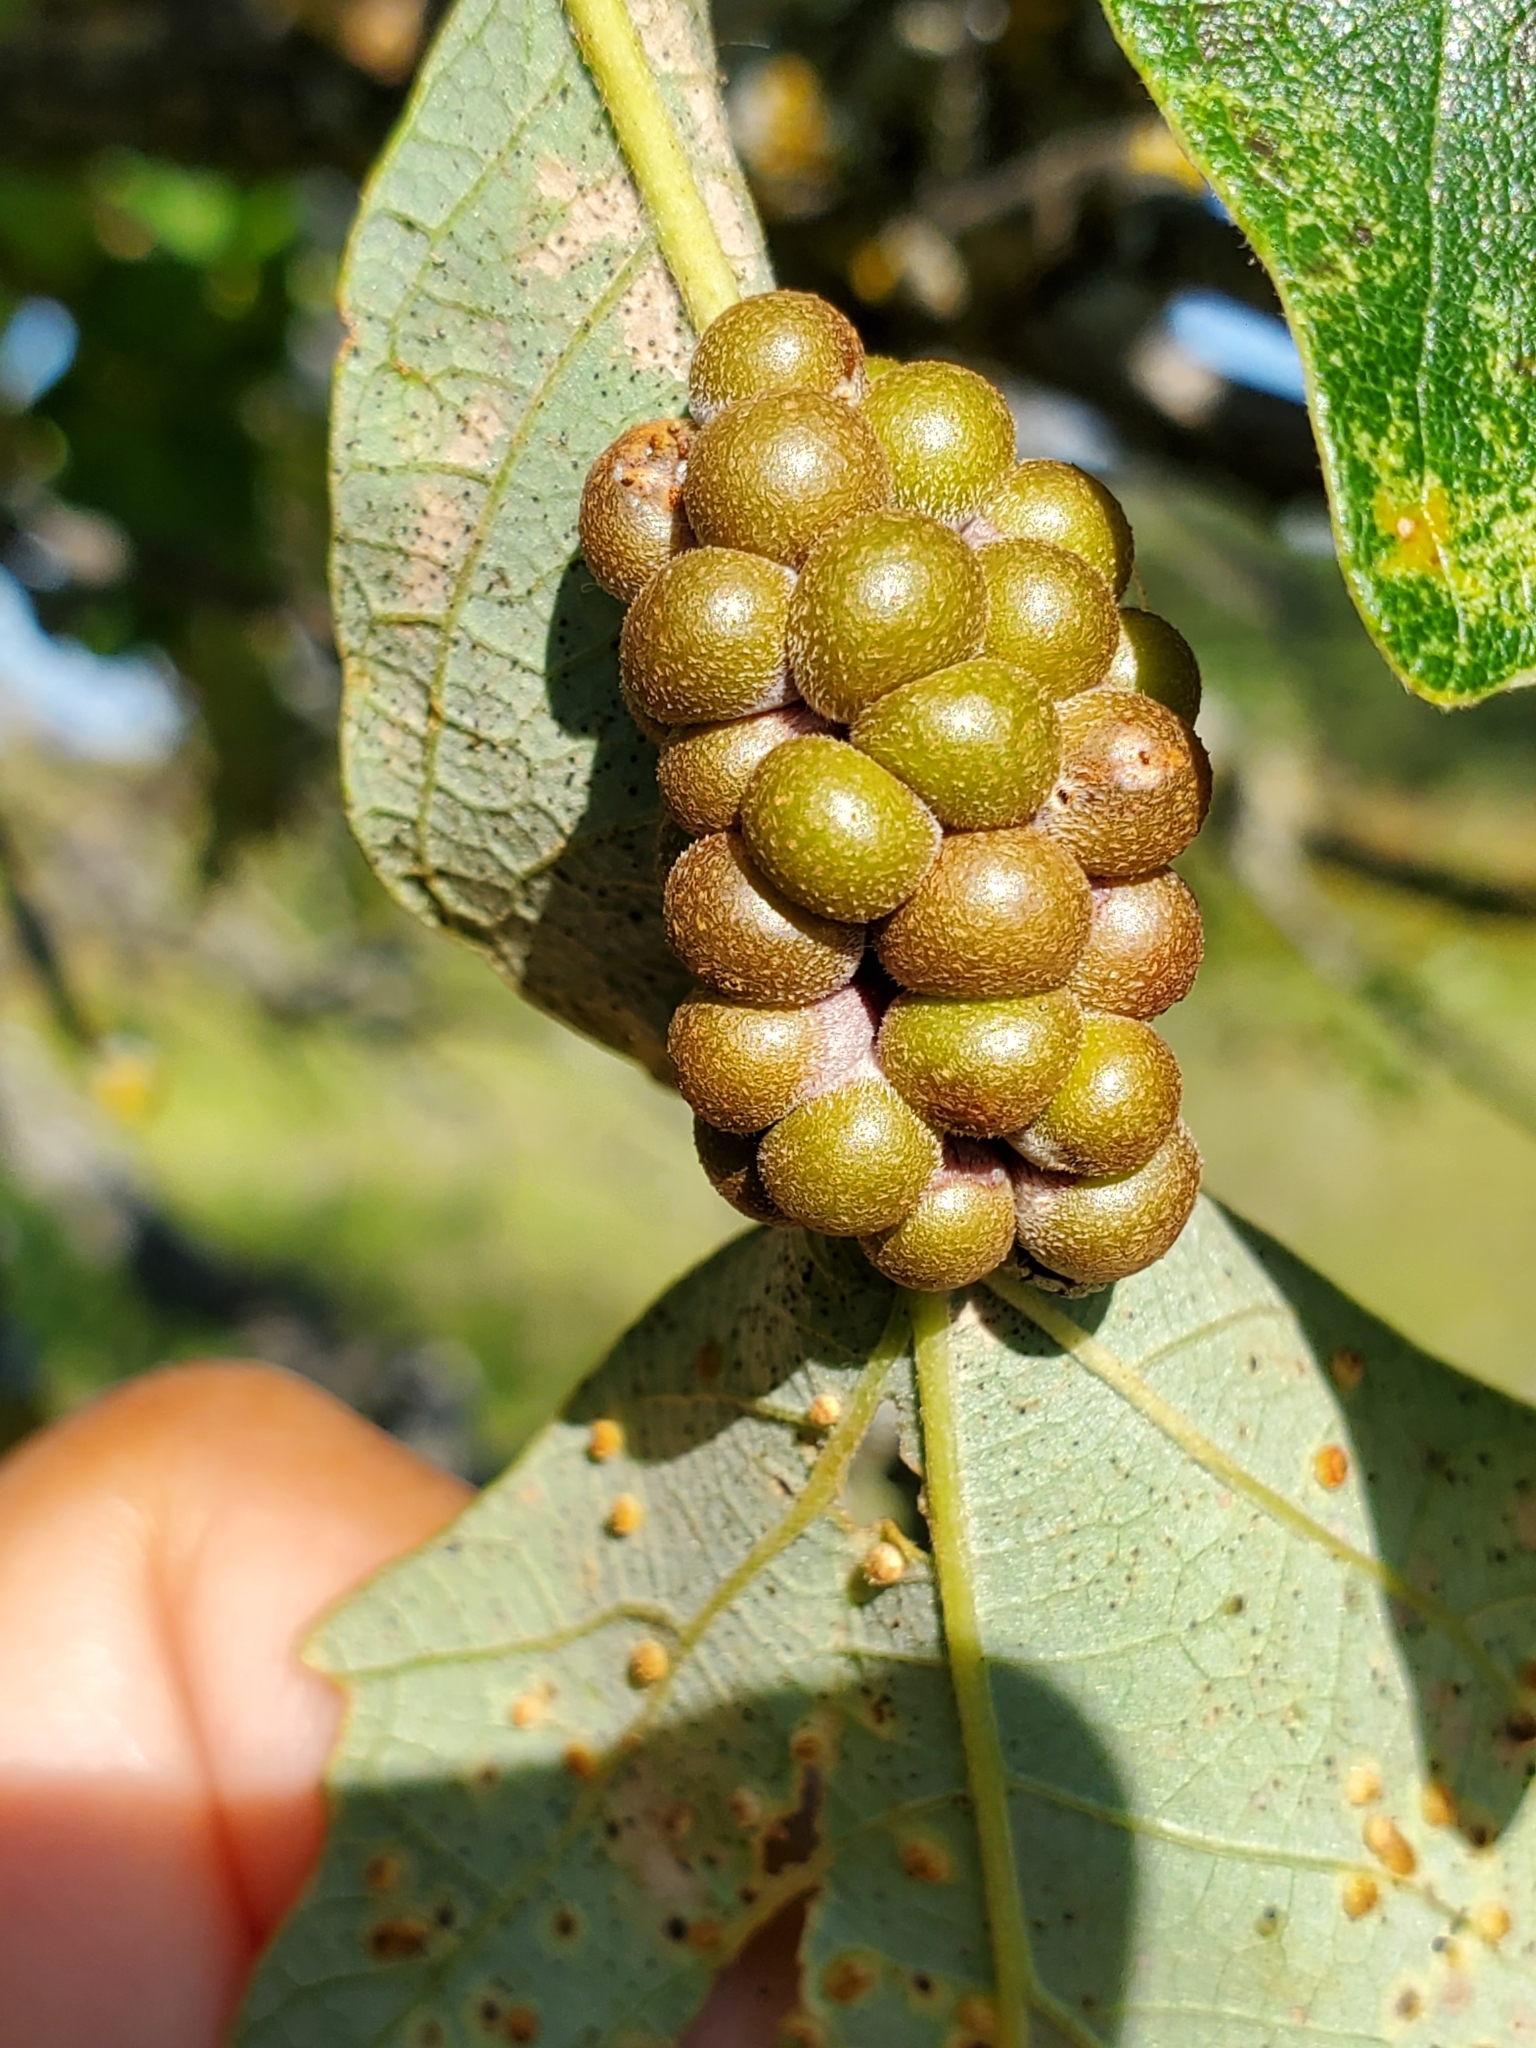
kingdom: Animalia
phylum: Arthropoda
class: Insecta
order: Hymenoptera
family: Cynipidae
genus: Andricus
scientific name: Andricus
